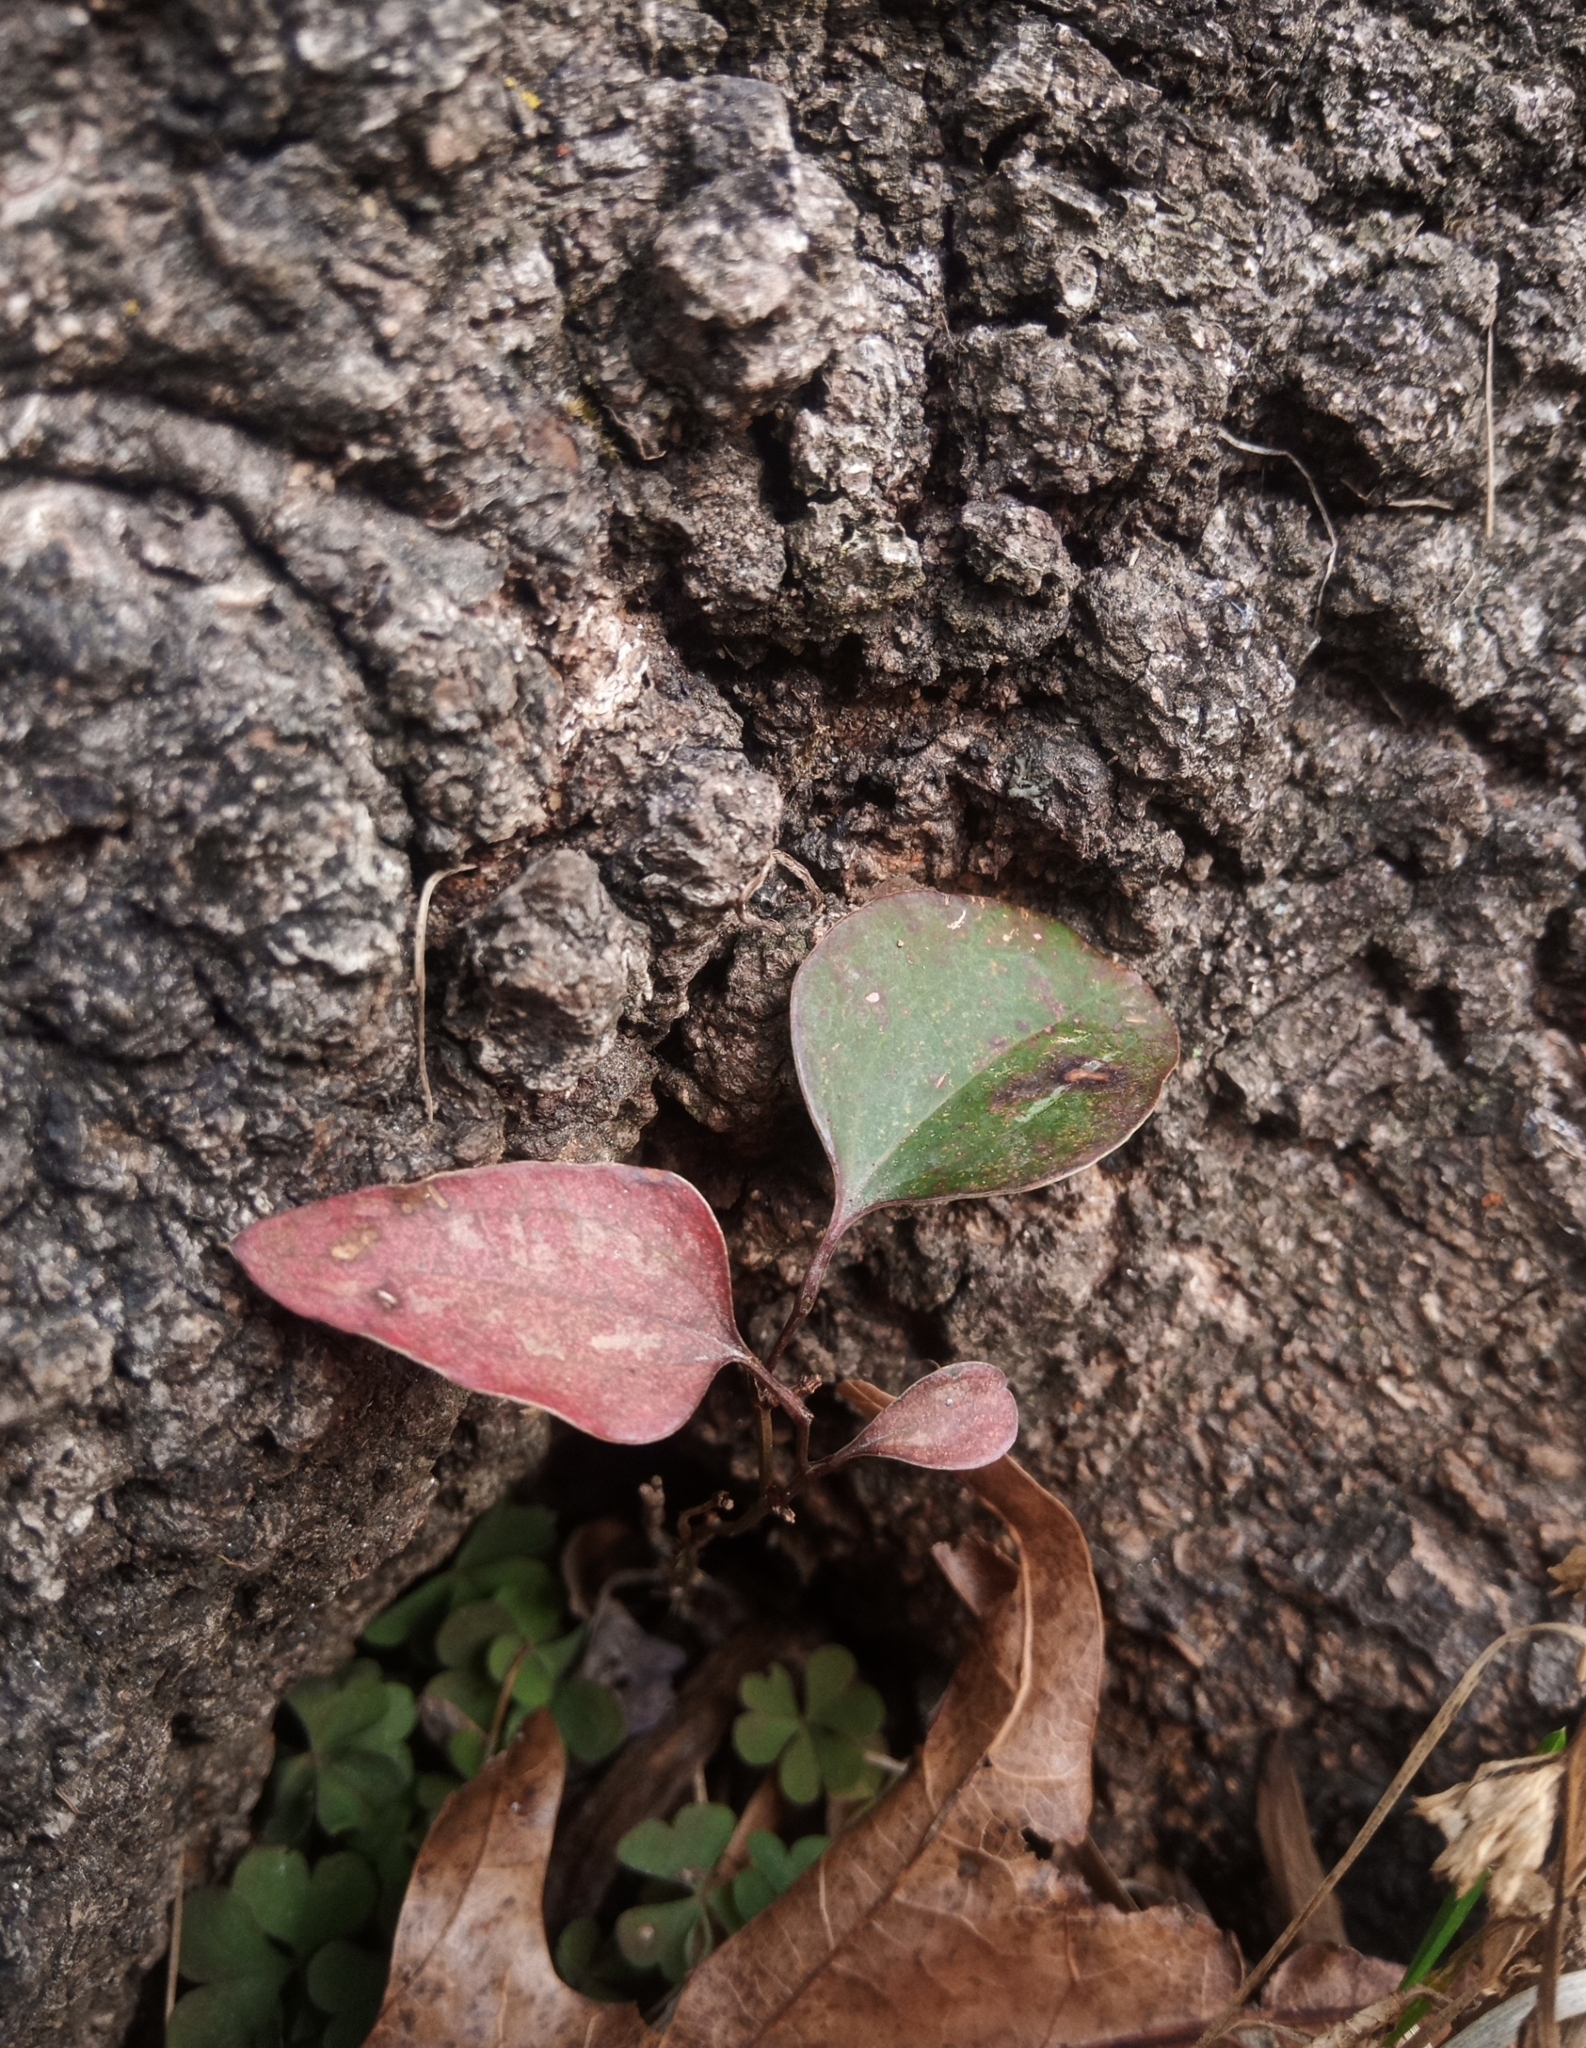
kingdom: Plantae
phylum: Tracheophyta
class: Liliopsida
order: Liliales
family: Smilacaceae
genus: Smilax
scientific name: Smilax glauca
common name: Cat greenbrier
